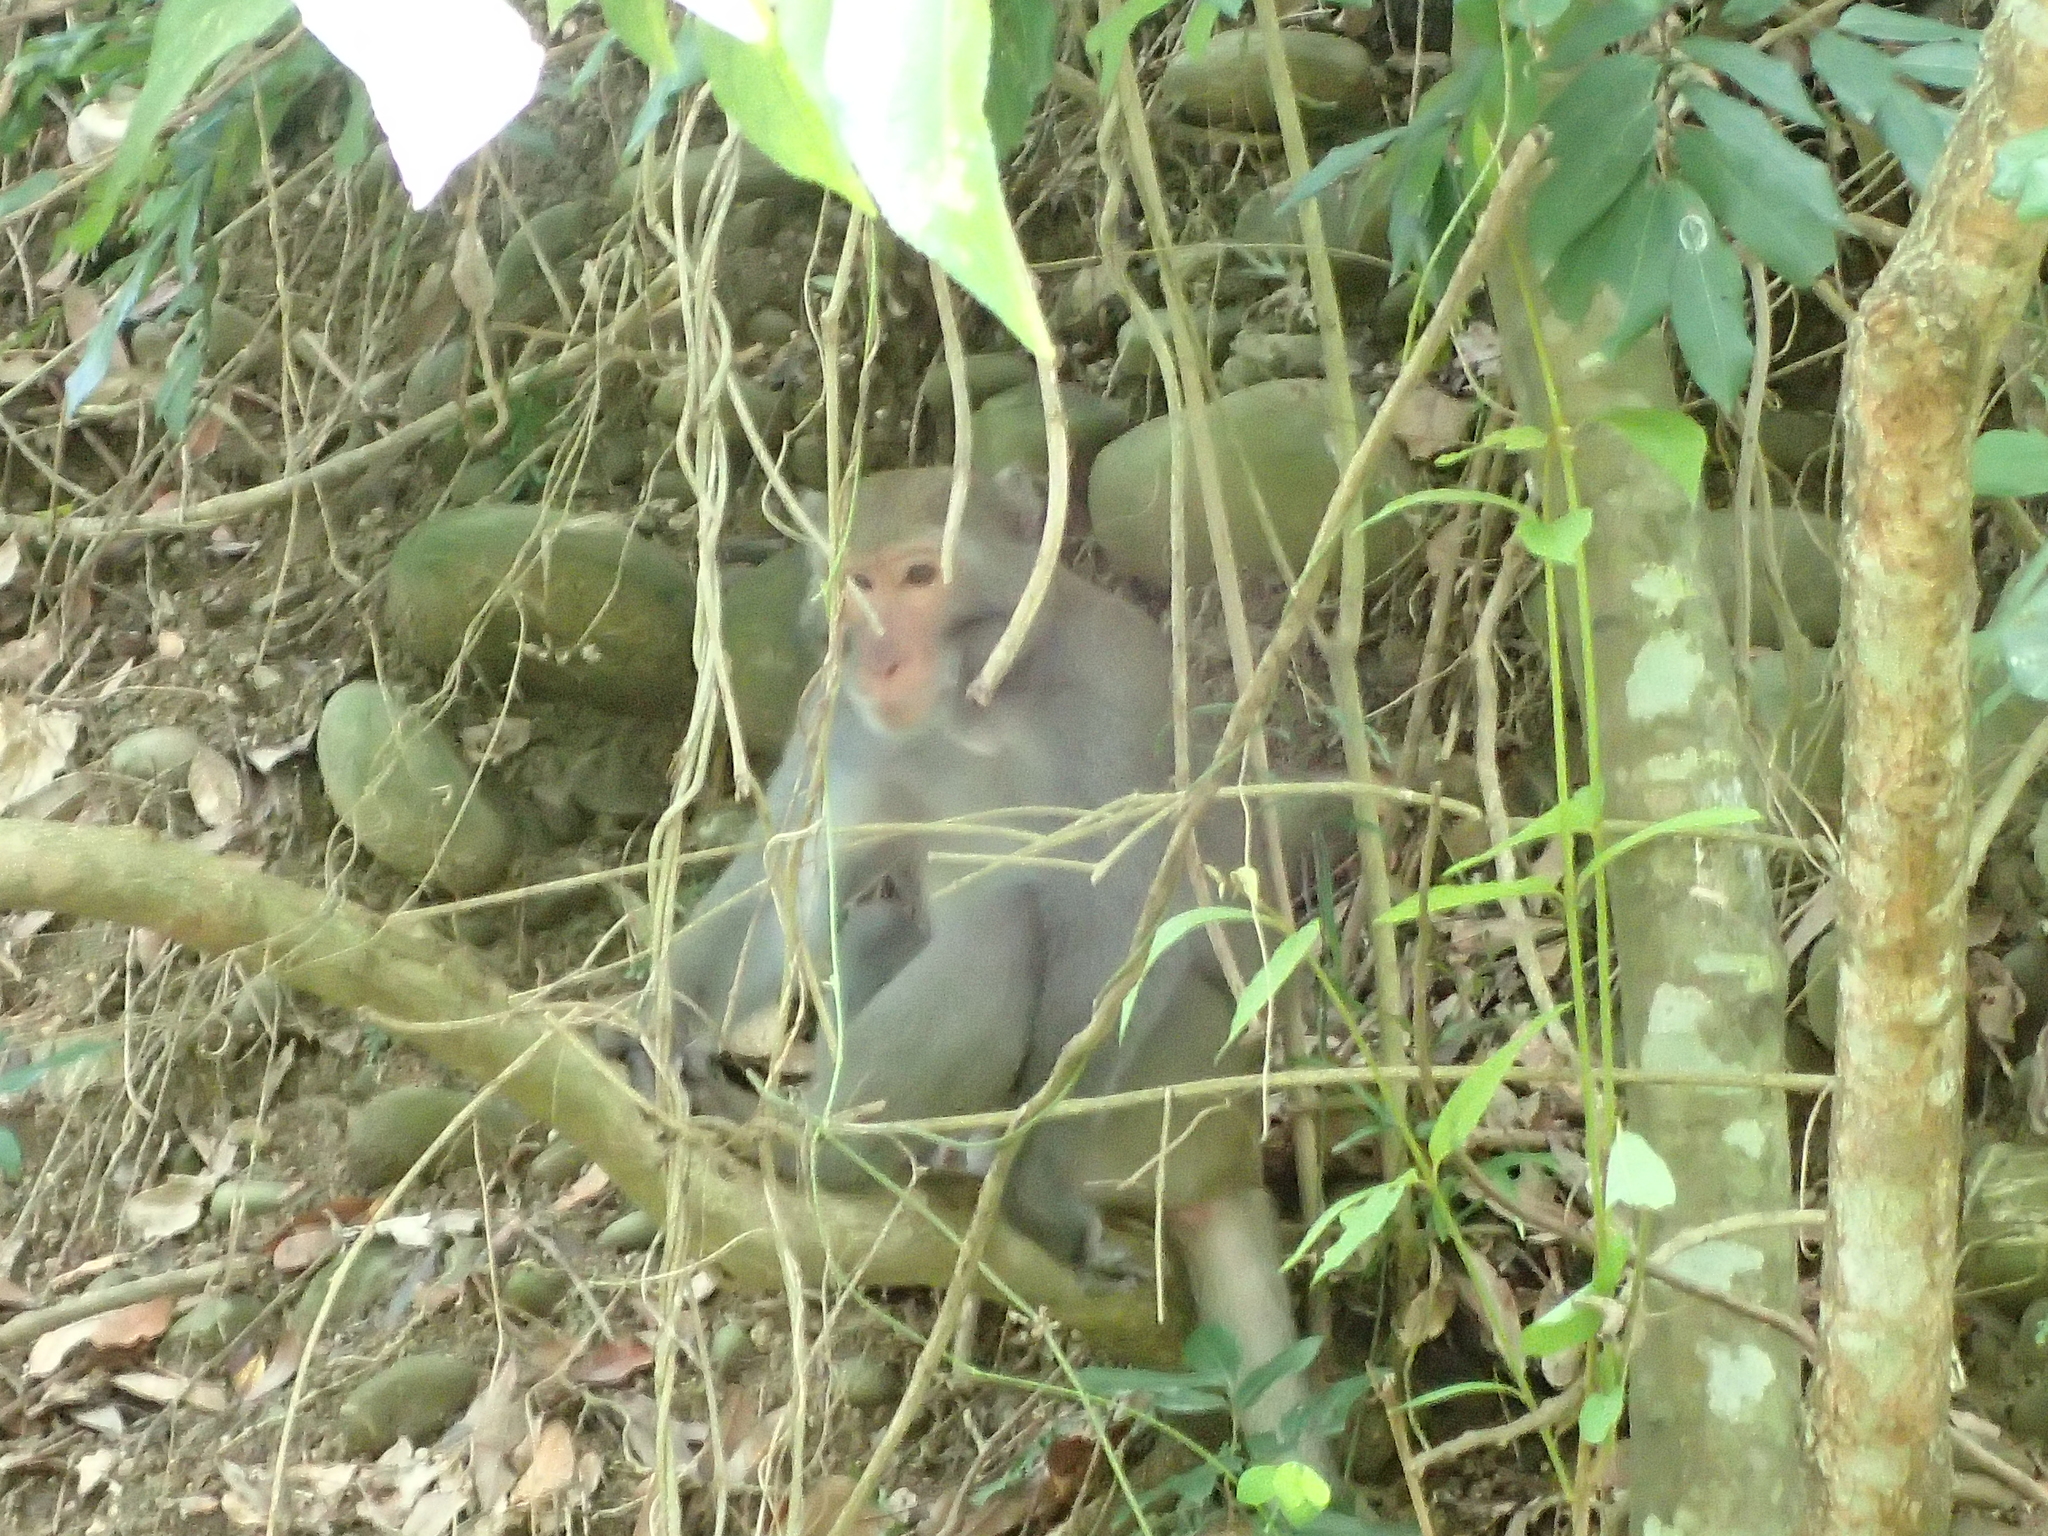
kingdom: Animalia
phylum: Chordata
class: Mammalia
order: Primates
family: Cercopithecidae
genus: Macaca
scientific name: Macaca cyclopis
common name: Formosan rock macaque
